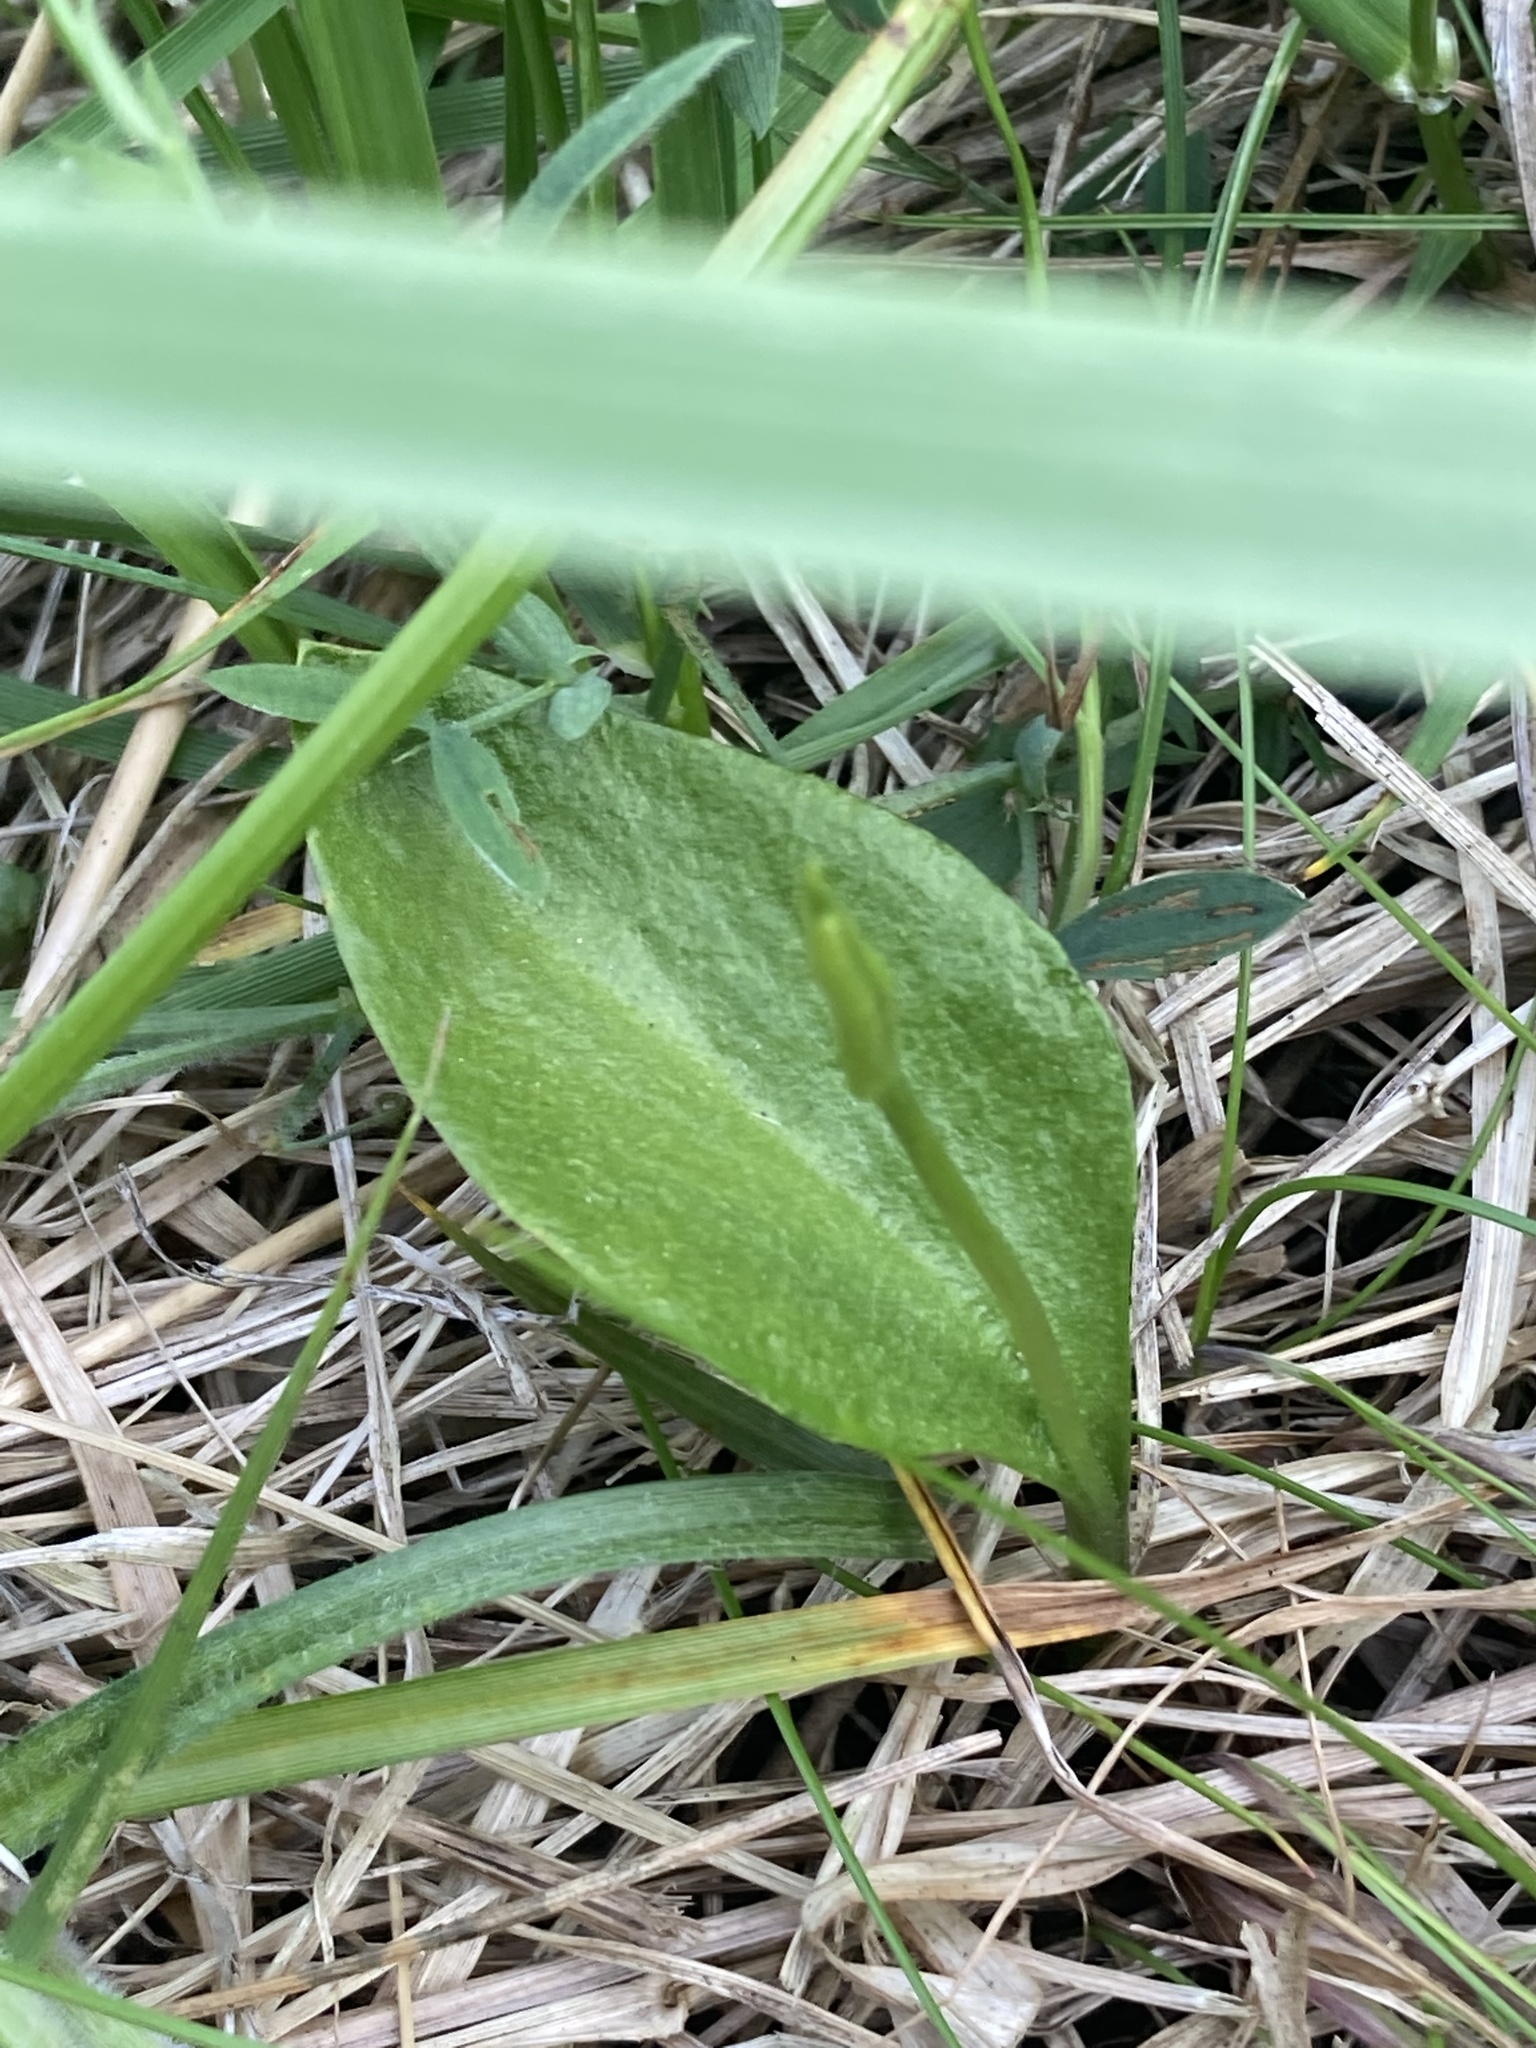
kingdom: Plantae
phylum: Tracheophyta
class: Polypodiopsida
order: Ophioglossales
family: Ophioglossaceae
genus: Ophioglossum
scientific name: Ophioglossum vulgatum
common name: Adder's-tongue
